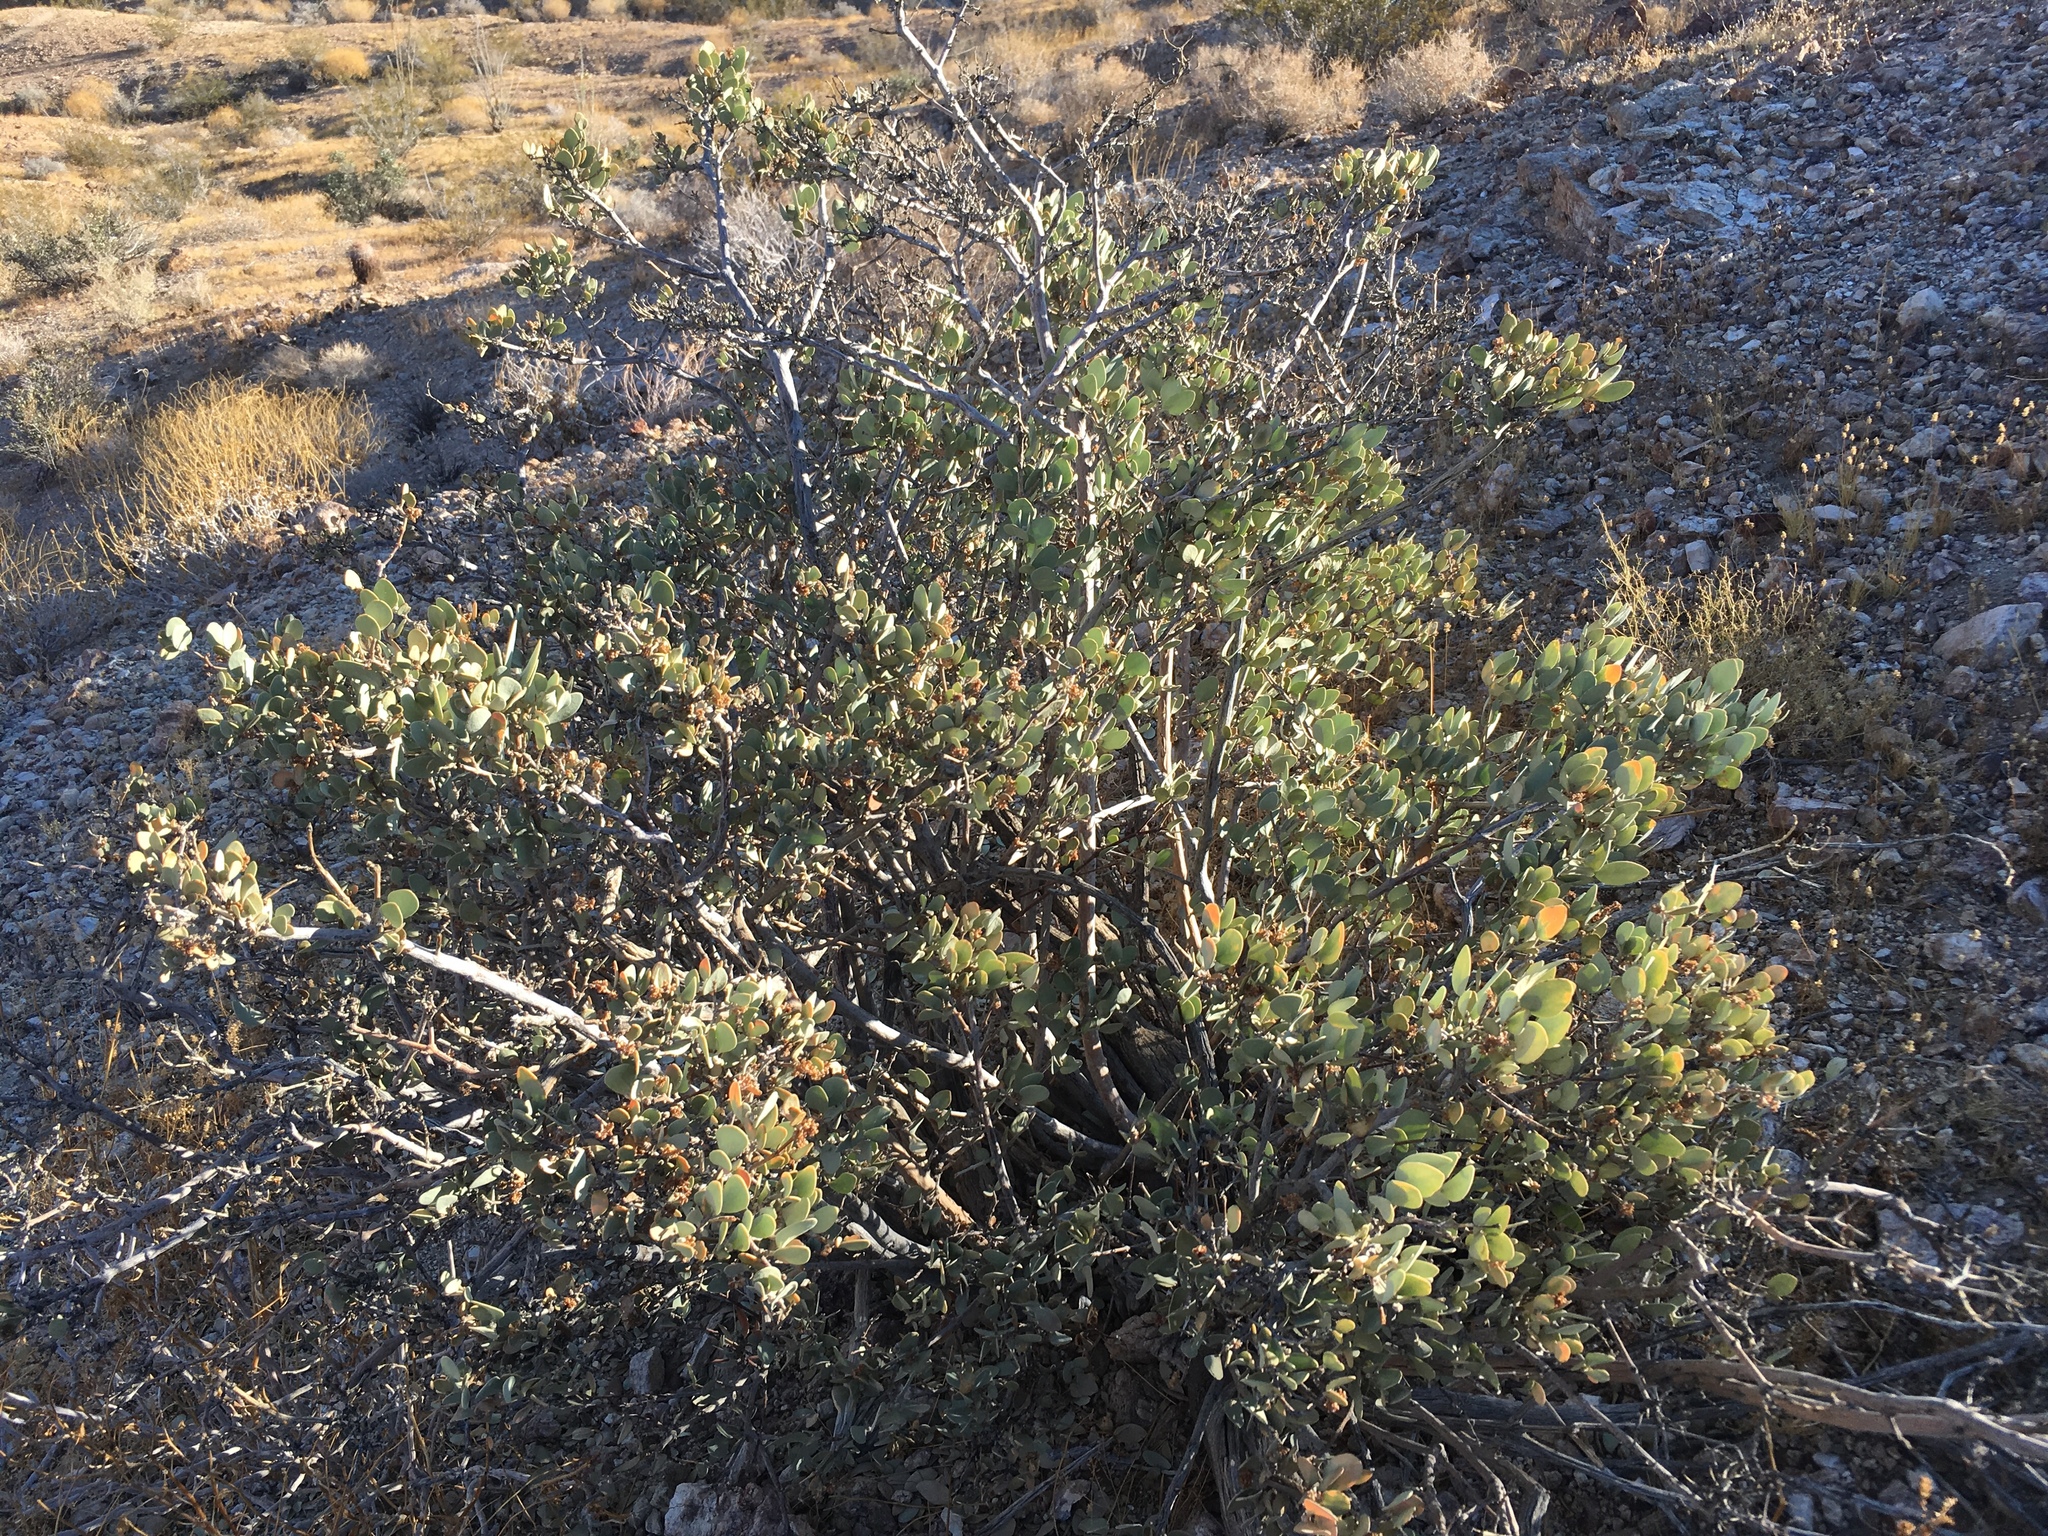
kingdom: Plantae
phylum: Tracheophyta
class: Magnoliopsida
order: Caryophyllales
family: Simmondsiaceae
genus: Simmondsia
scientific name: Simmondsia chinensis
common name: Jojoba
